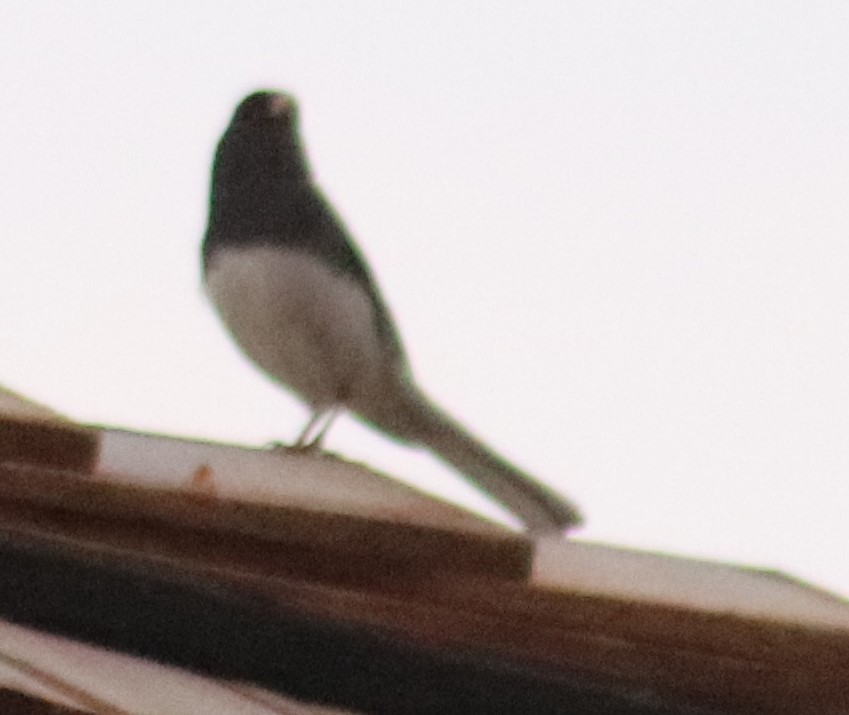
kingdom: Animalia
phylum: Chordata
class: Aves
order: Passeriformes
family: Passerellidae
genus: Junco
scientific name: Junco hyemalis
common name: Dark-eyed junco
